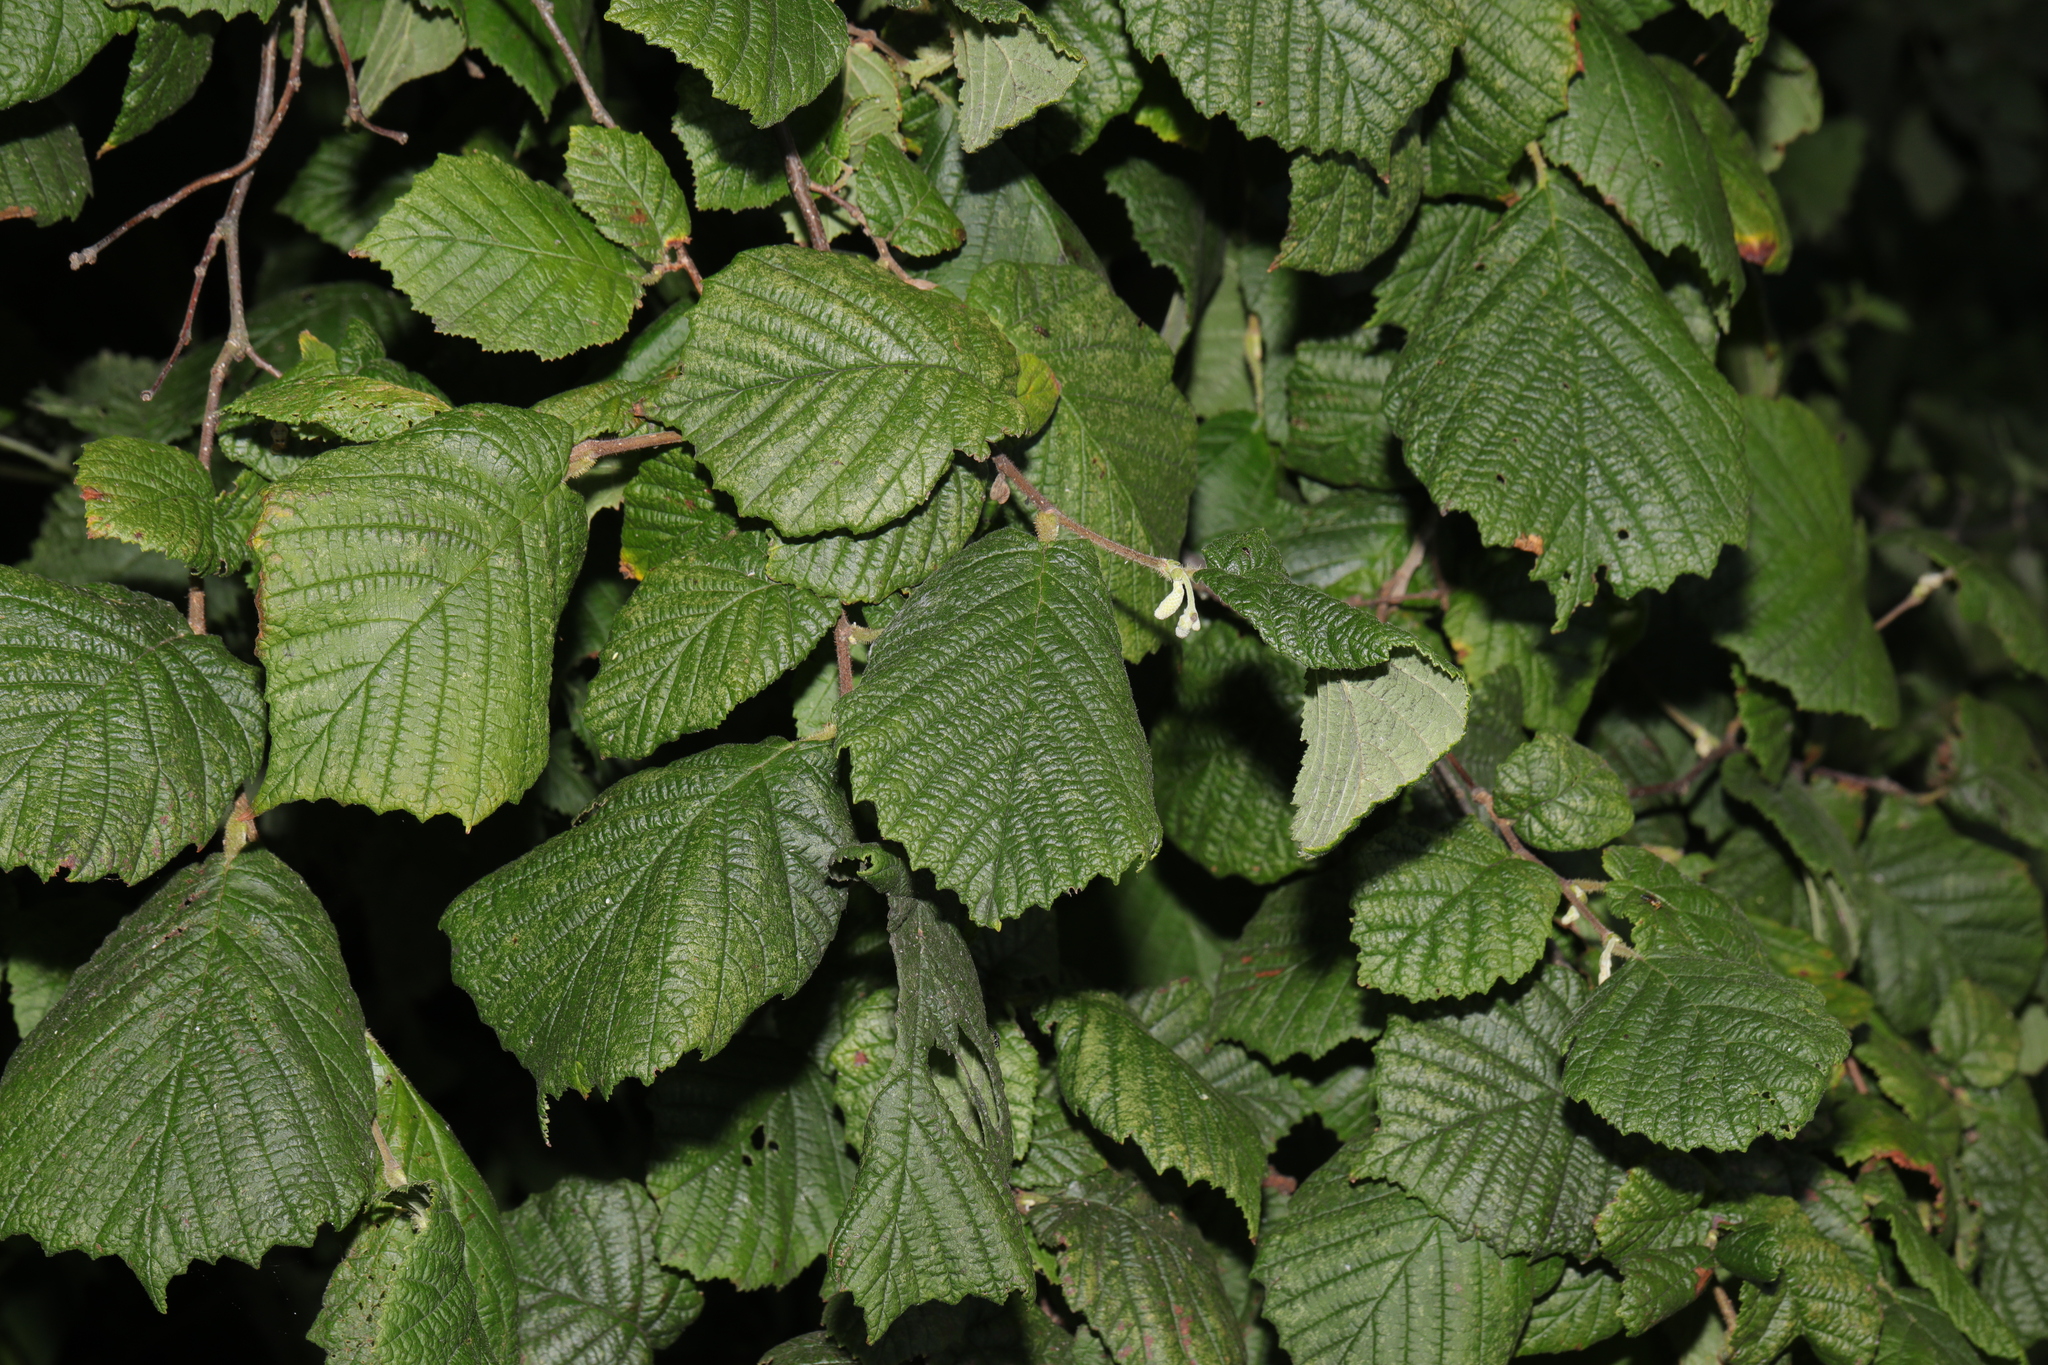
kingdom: Plantae
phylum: Tracheophyta
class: Magnoliopsida
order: Fagales
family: Betulaceae
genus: Corylus
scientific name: Corylus avellana
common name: European hazel
